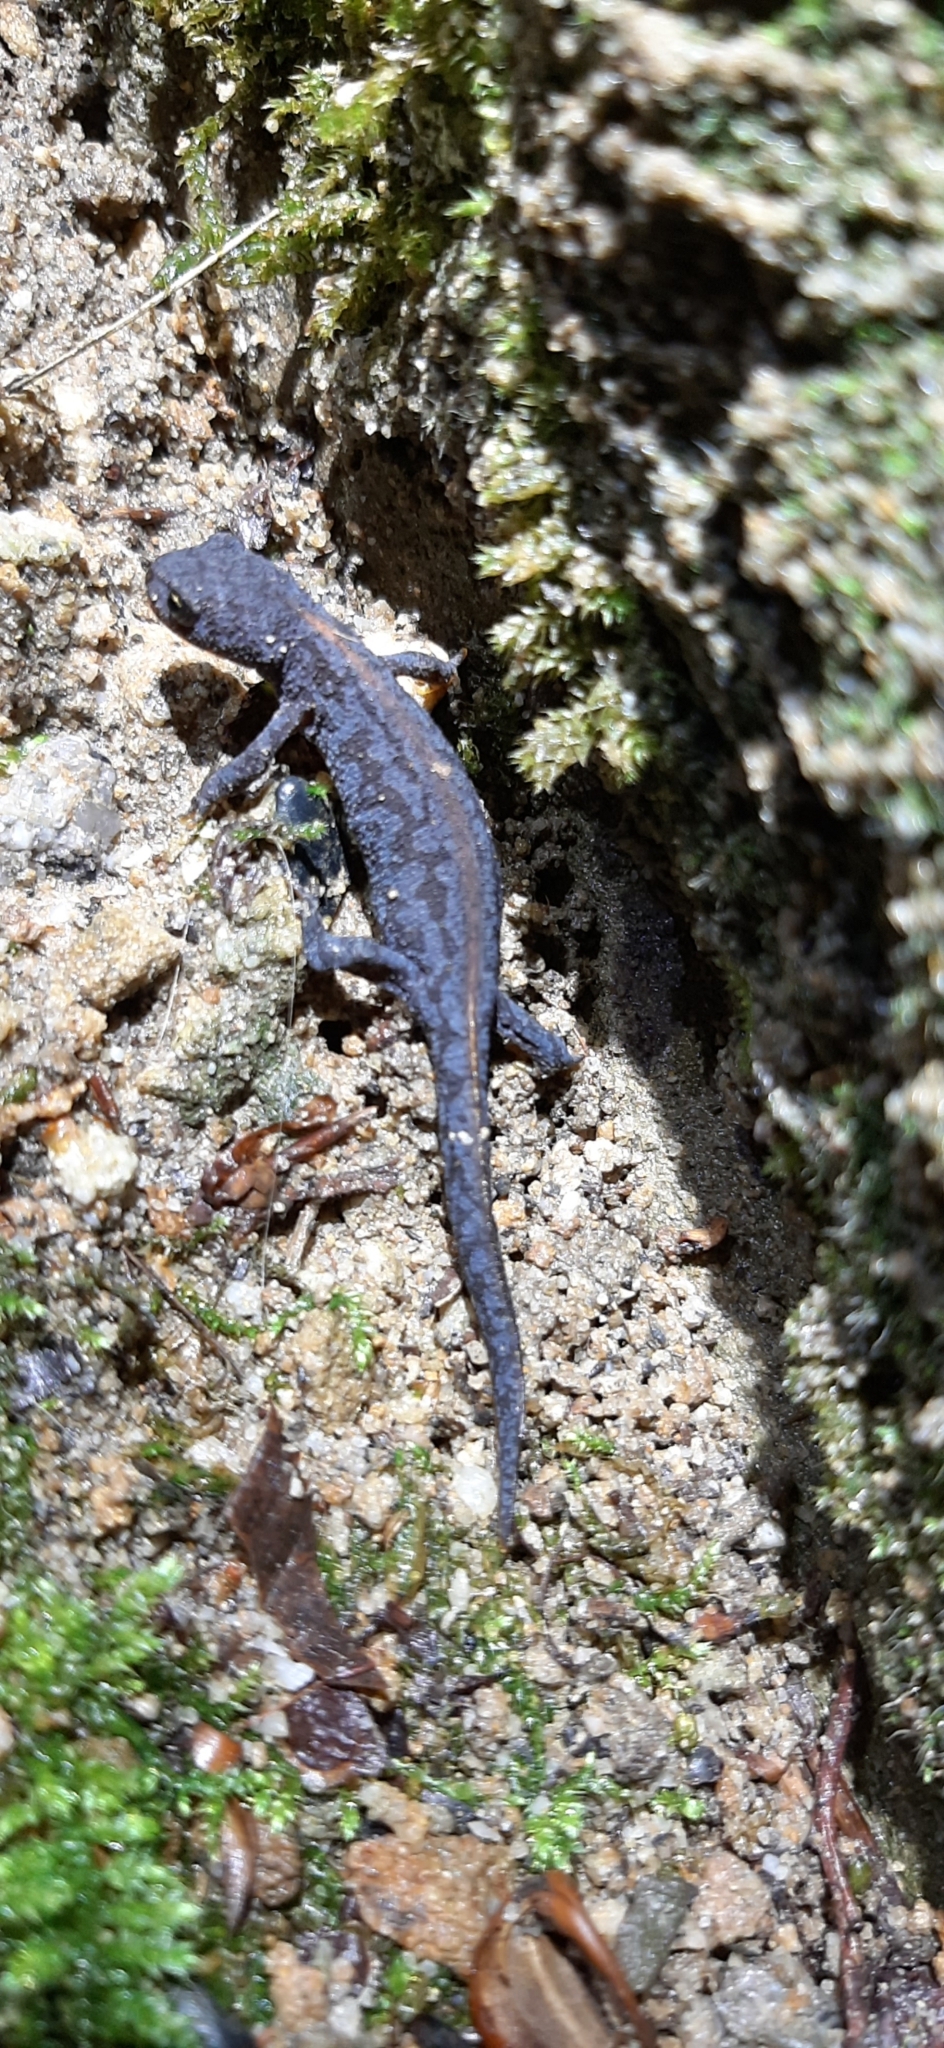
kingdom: Animalia
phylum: Chordata
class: Amphibia
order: Caudata
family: Salamandridae
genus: Ichthyosaura
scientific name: Ichthyosaura alpestris
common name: Alpine newt
